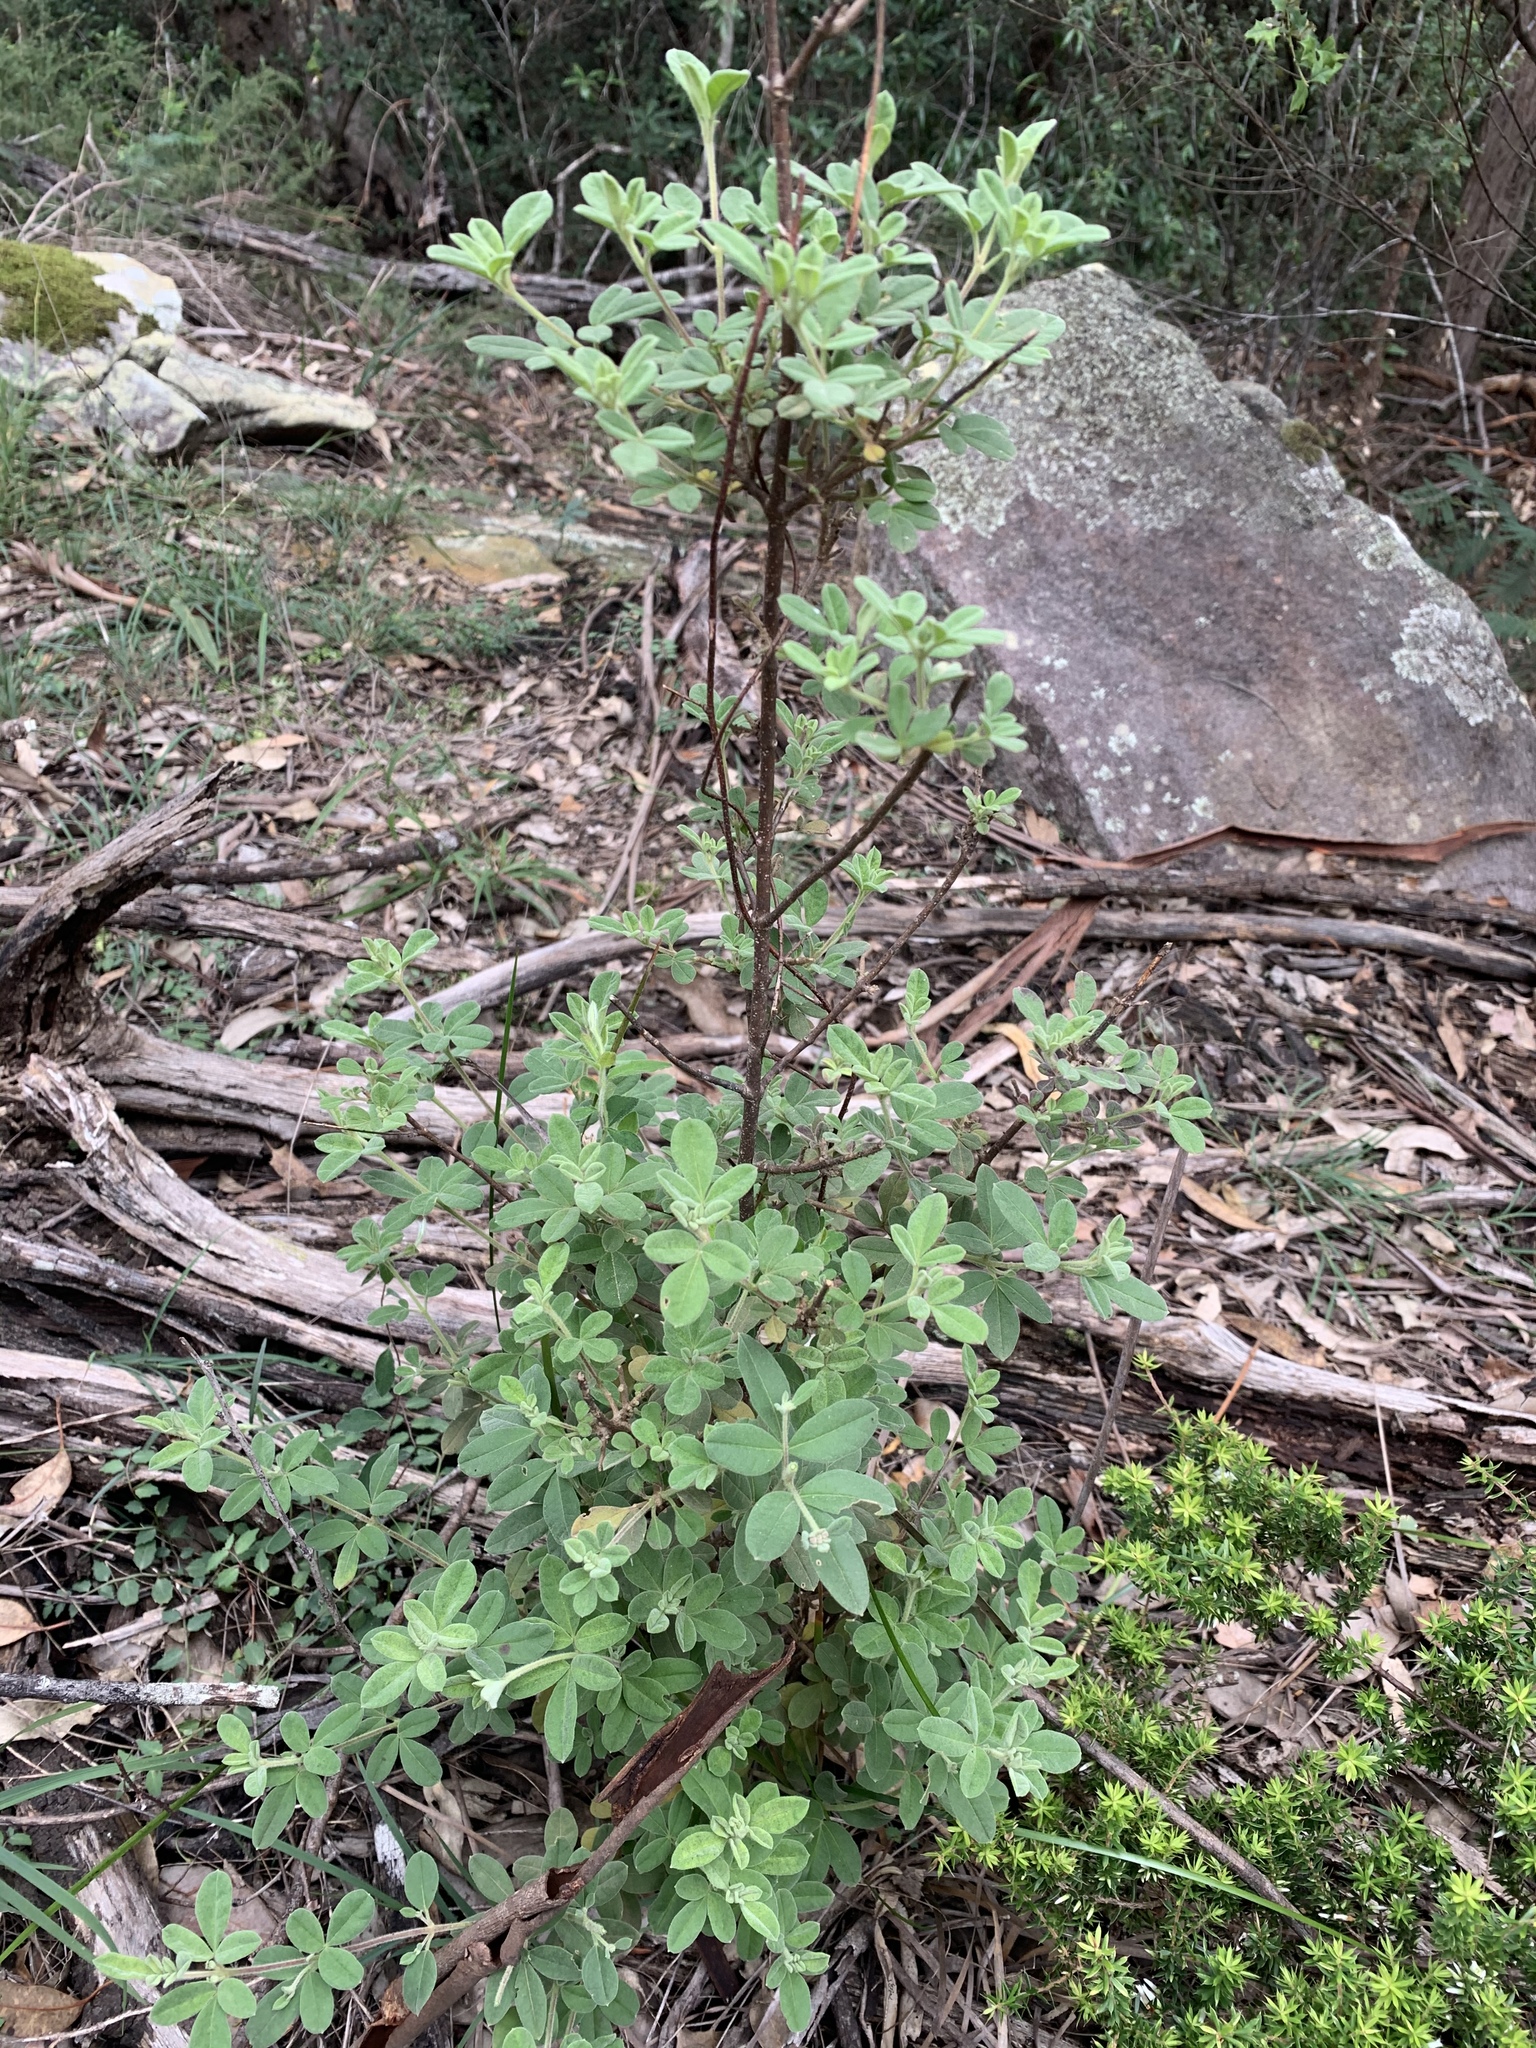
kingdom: Plantae
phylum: Tracheophyta
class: Magnoliopsida
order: Sapindales
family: Rutaceae
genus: Zieria
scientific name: Zieria cytisoides
